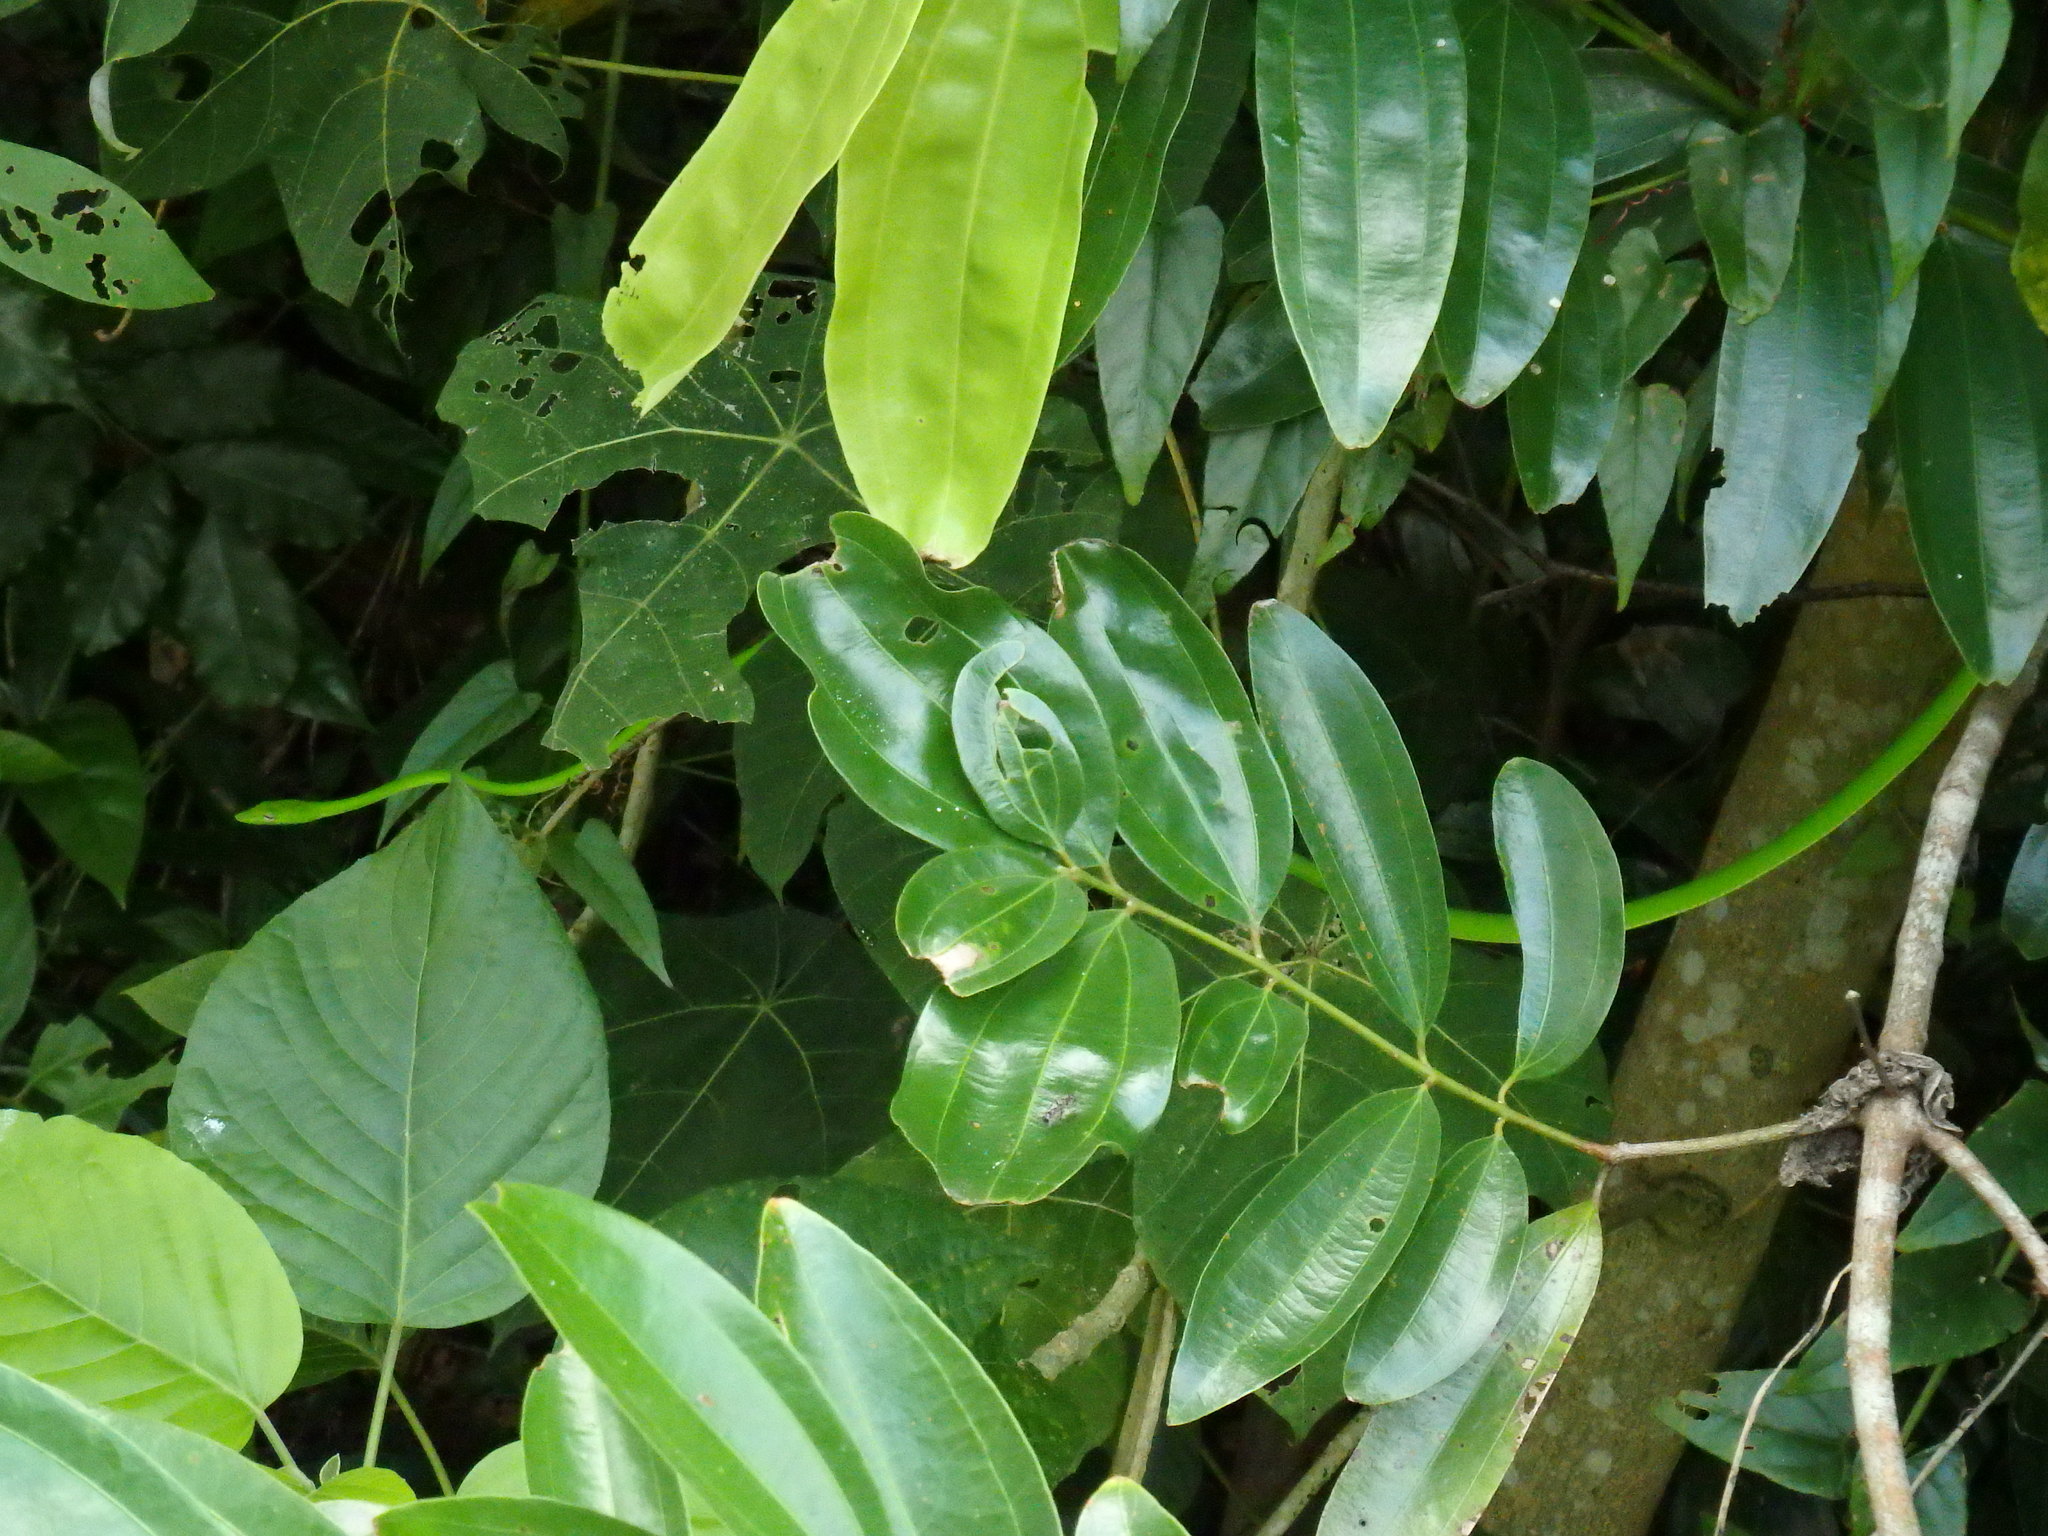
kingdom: Animalia
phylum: Chordata
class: Squamata
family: Colubridae
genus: Ahaetulla
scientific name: Ahaetulla prasina
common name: Oriental whip snake
